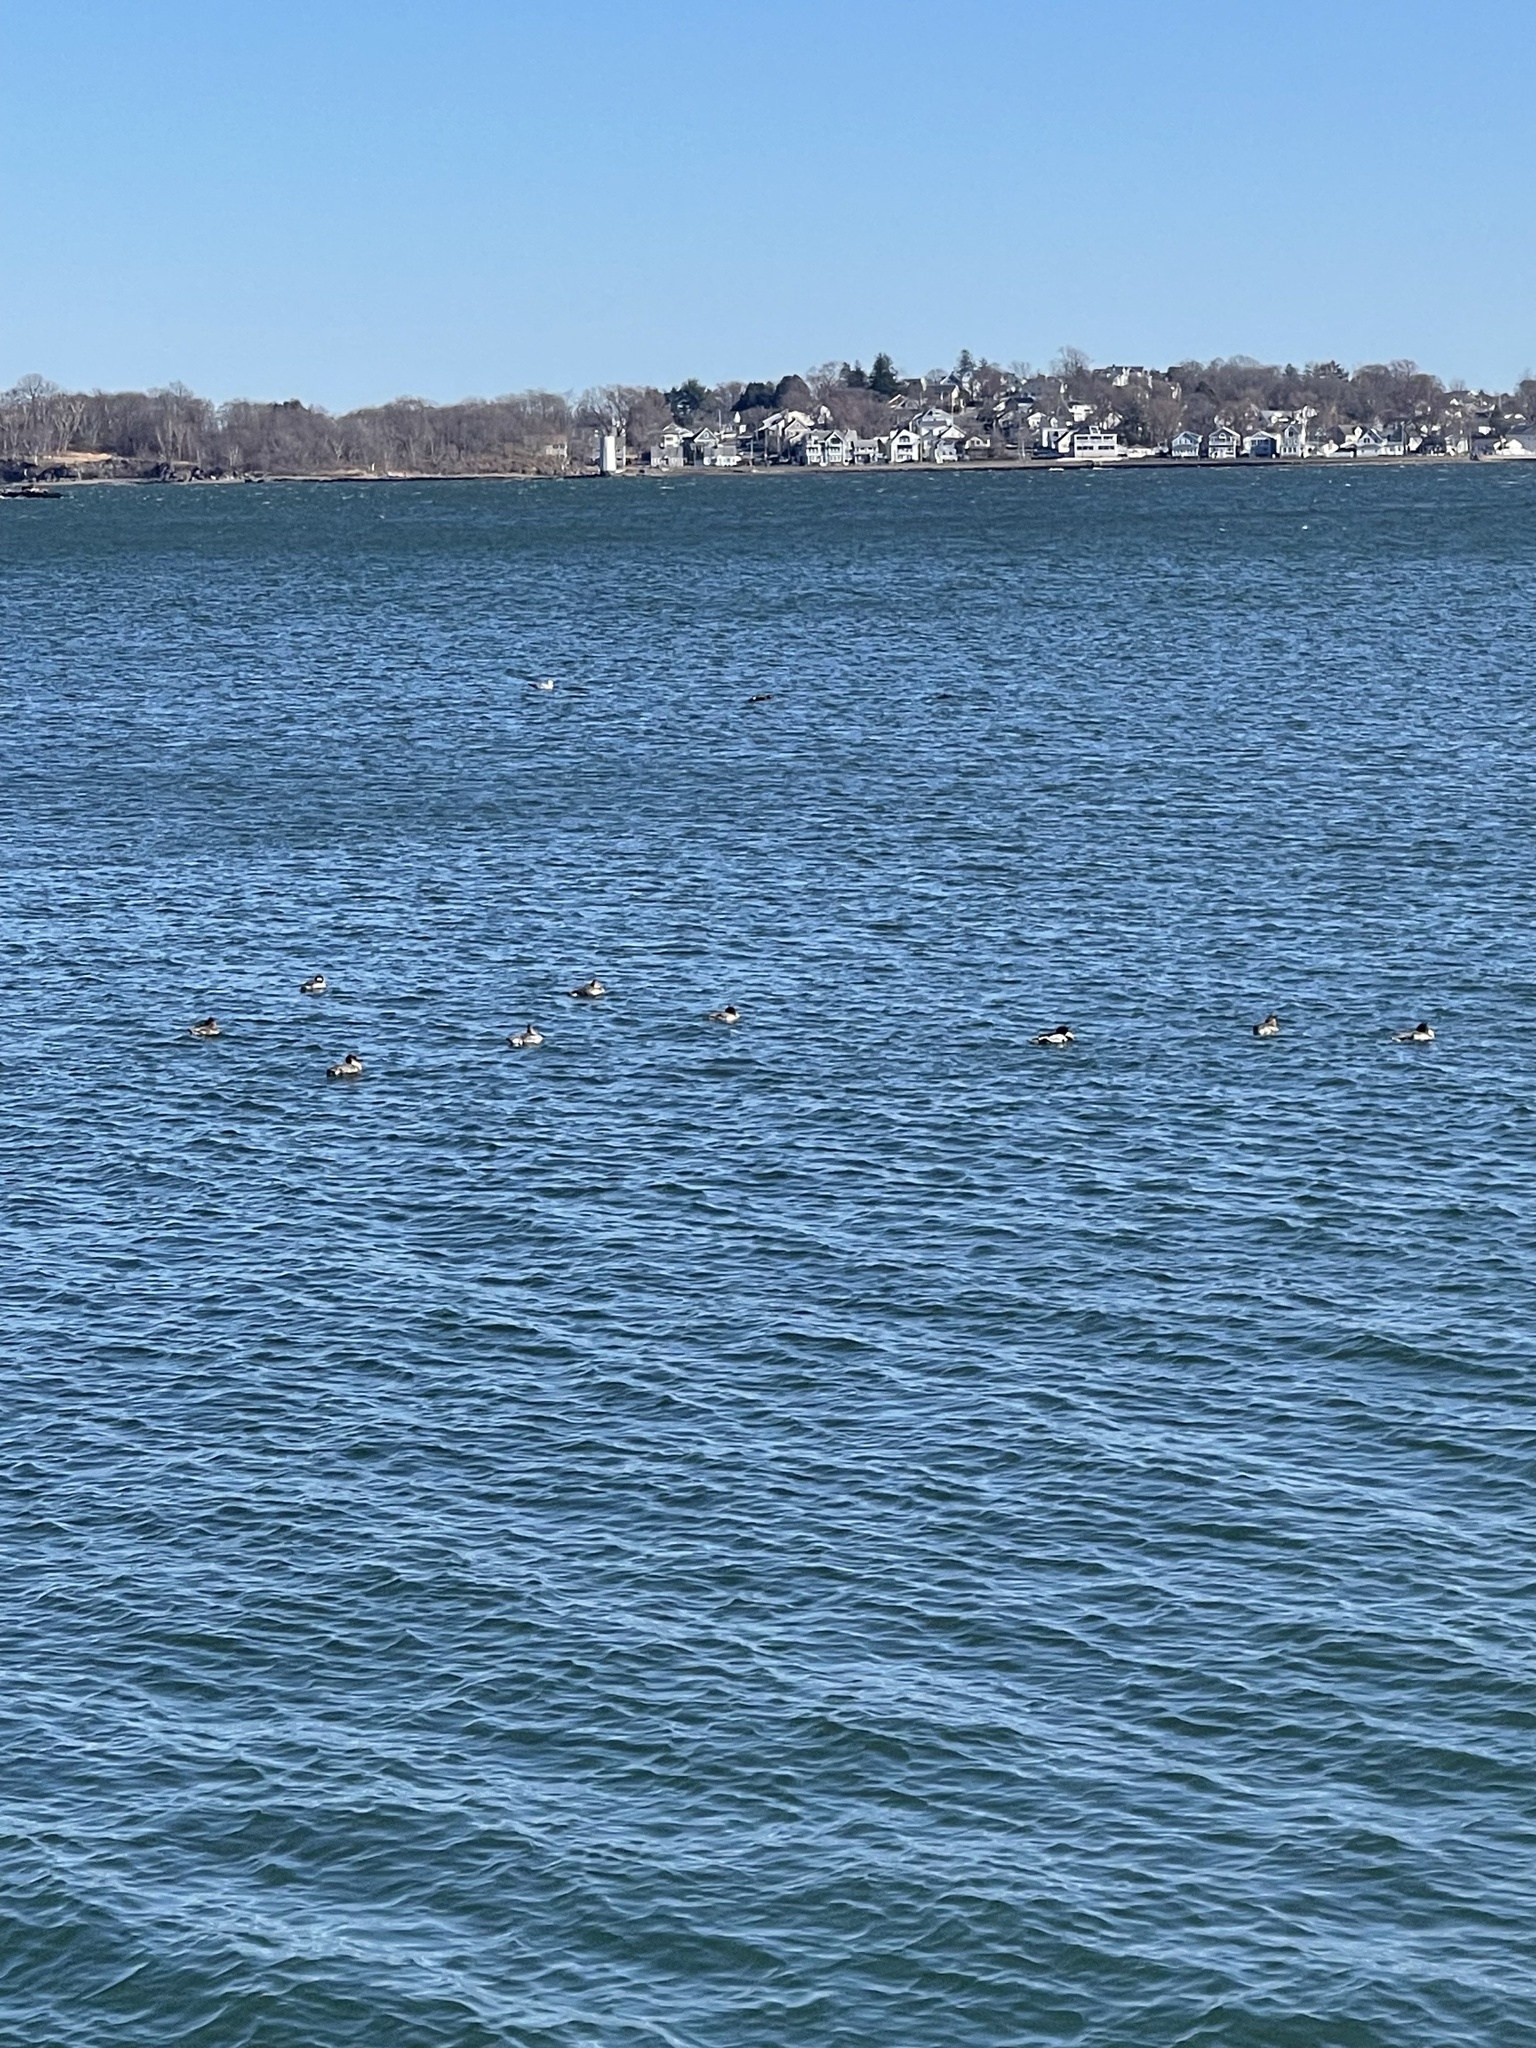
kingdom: Animalia
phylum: Chordata
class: Aves
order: Anseriformes
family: Anatidae
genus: Mergus
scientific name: Mergus serrator
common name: Red-breasted merganser
